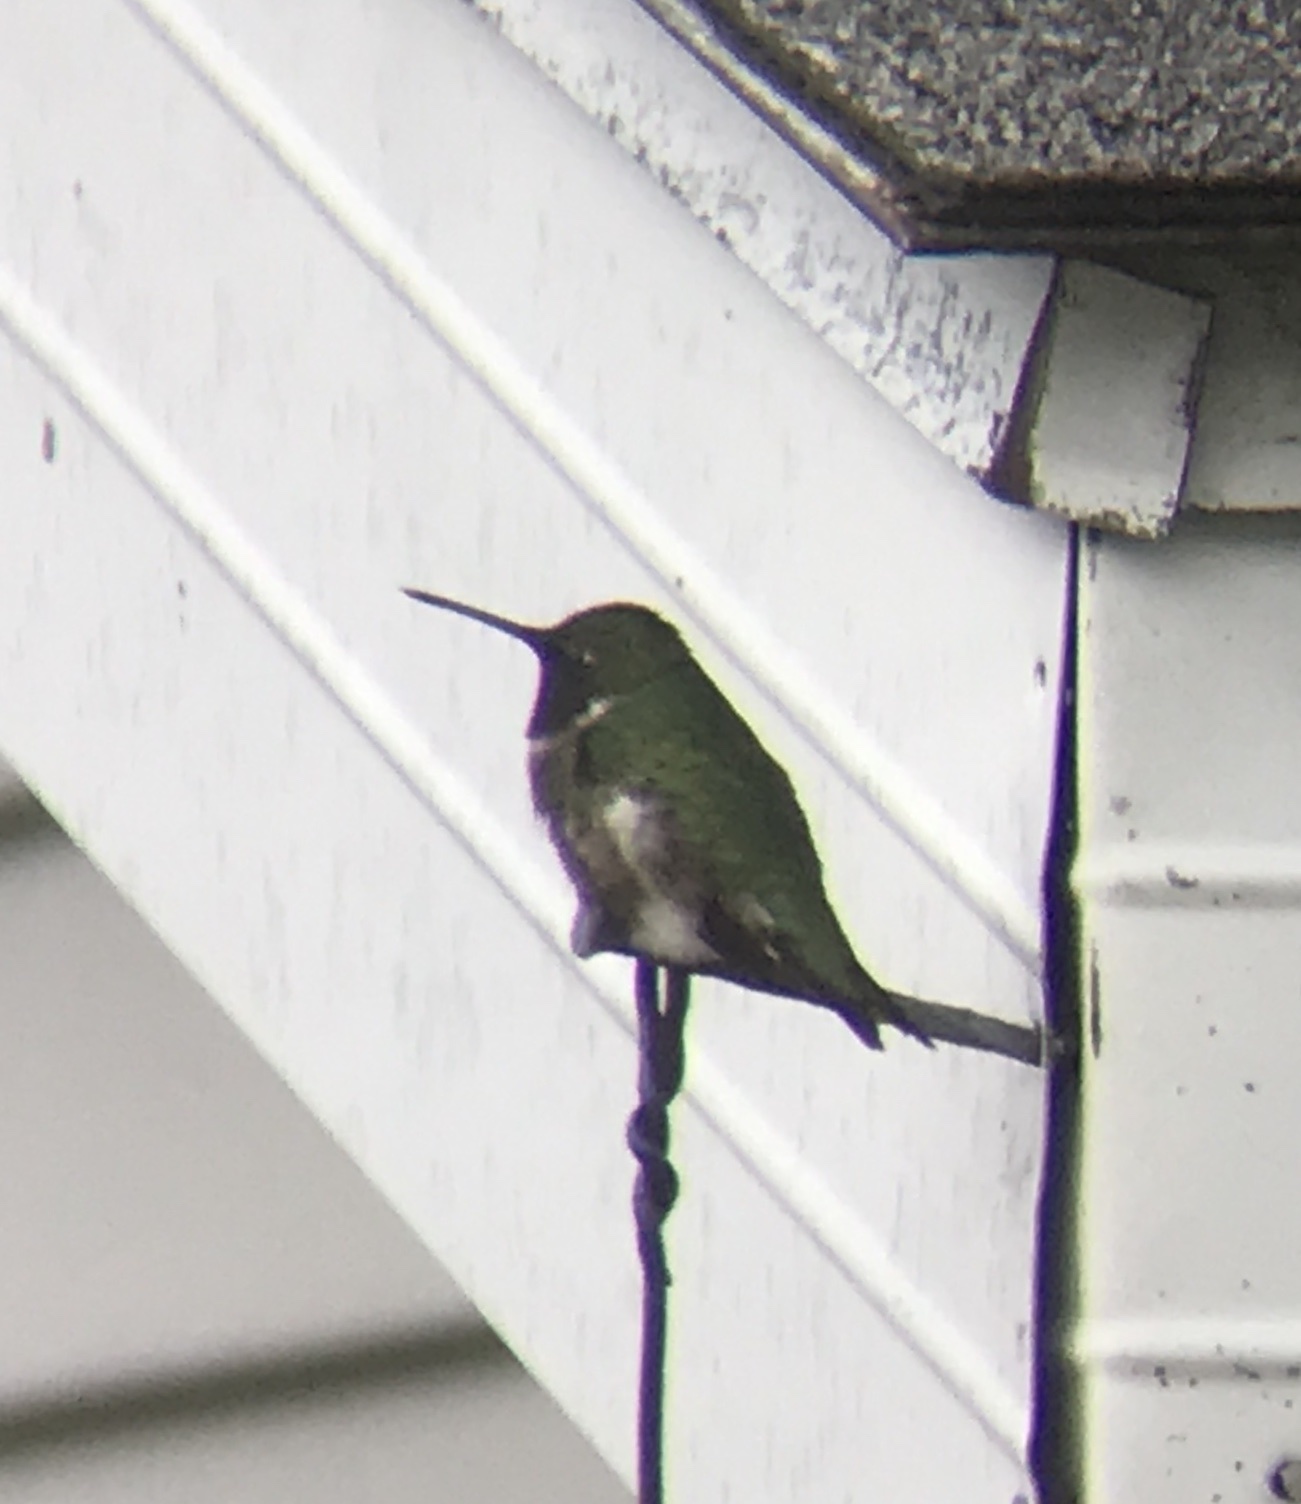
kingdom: Animalia
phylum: Chordata
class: Aves
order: Apodiformes
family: Trochilidae
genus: Archilochus
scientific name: Archilochus colubris
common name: Ruby-throated hummingbird
